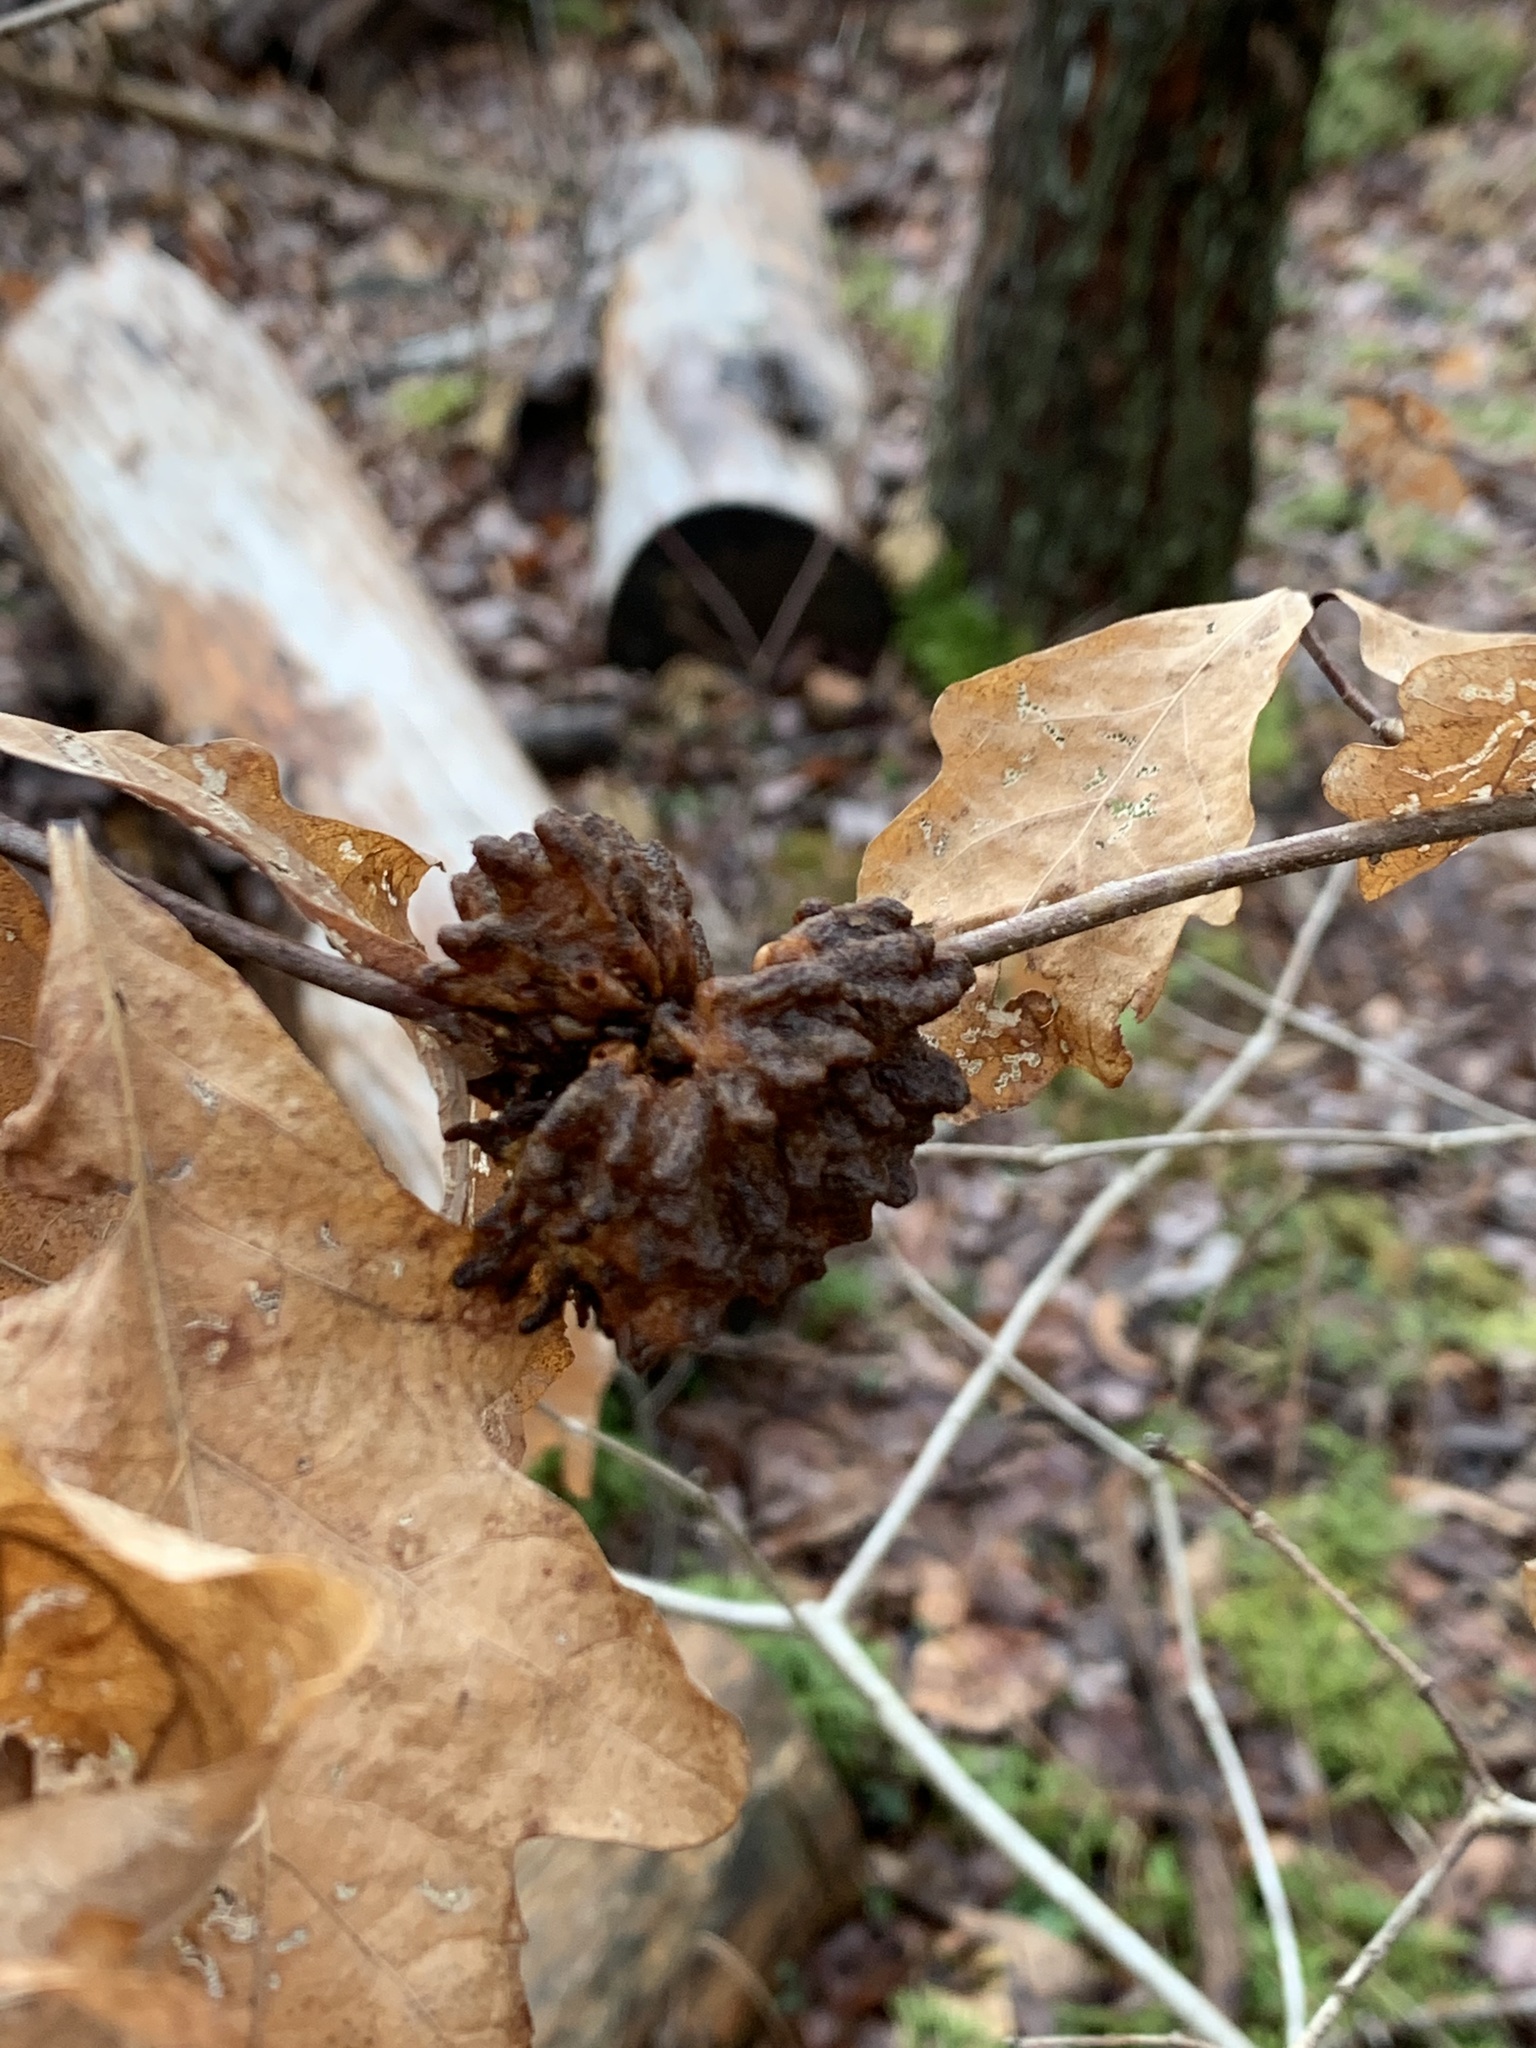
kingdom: Animalia
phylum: Arthropoda
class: Insecta
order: Hymenoptera
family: Cynipidae
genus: Callirhytis
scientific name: Callirhytis
